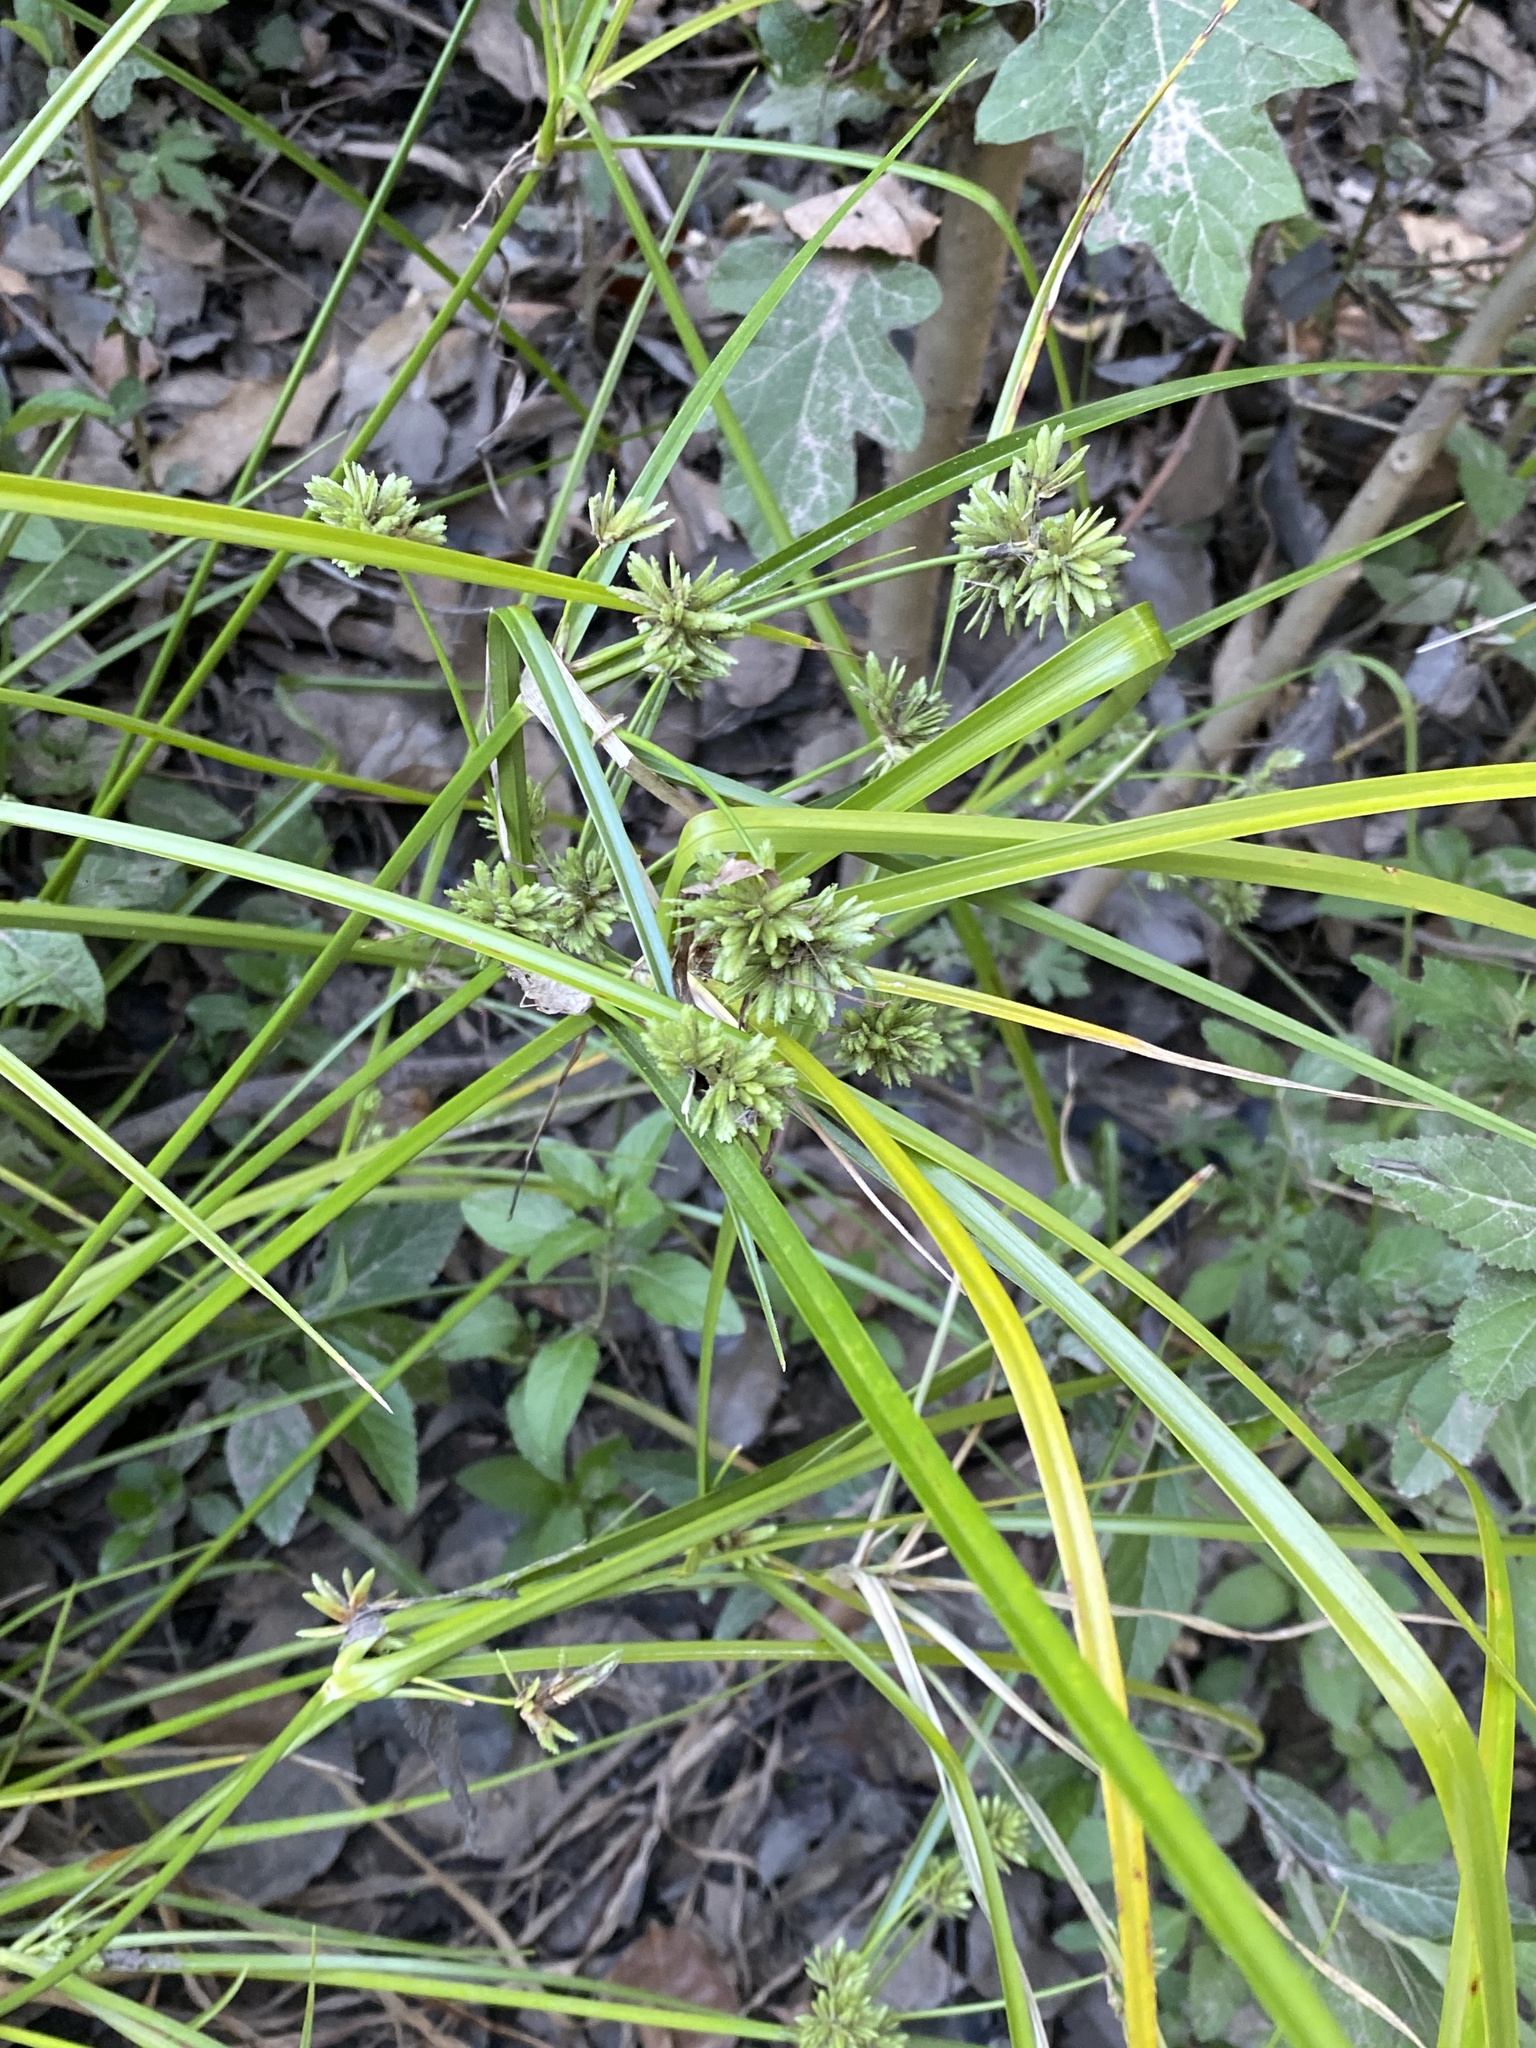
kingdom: Plantae
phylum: Tracheophyta
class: Liliopsida
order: Poales
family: Cyperaceae
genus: Cyperus
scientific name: Cyperus eragrostis
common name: Tall flatsedge
